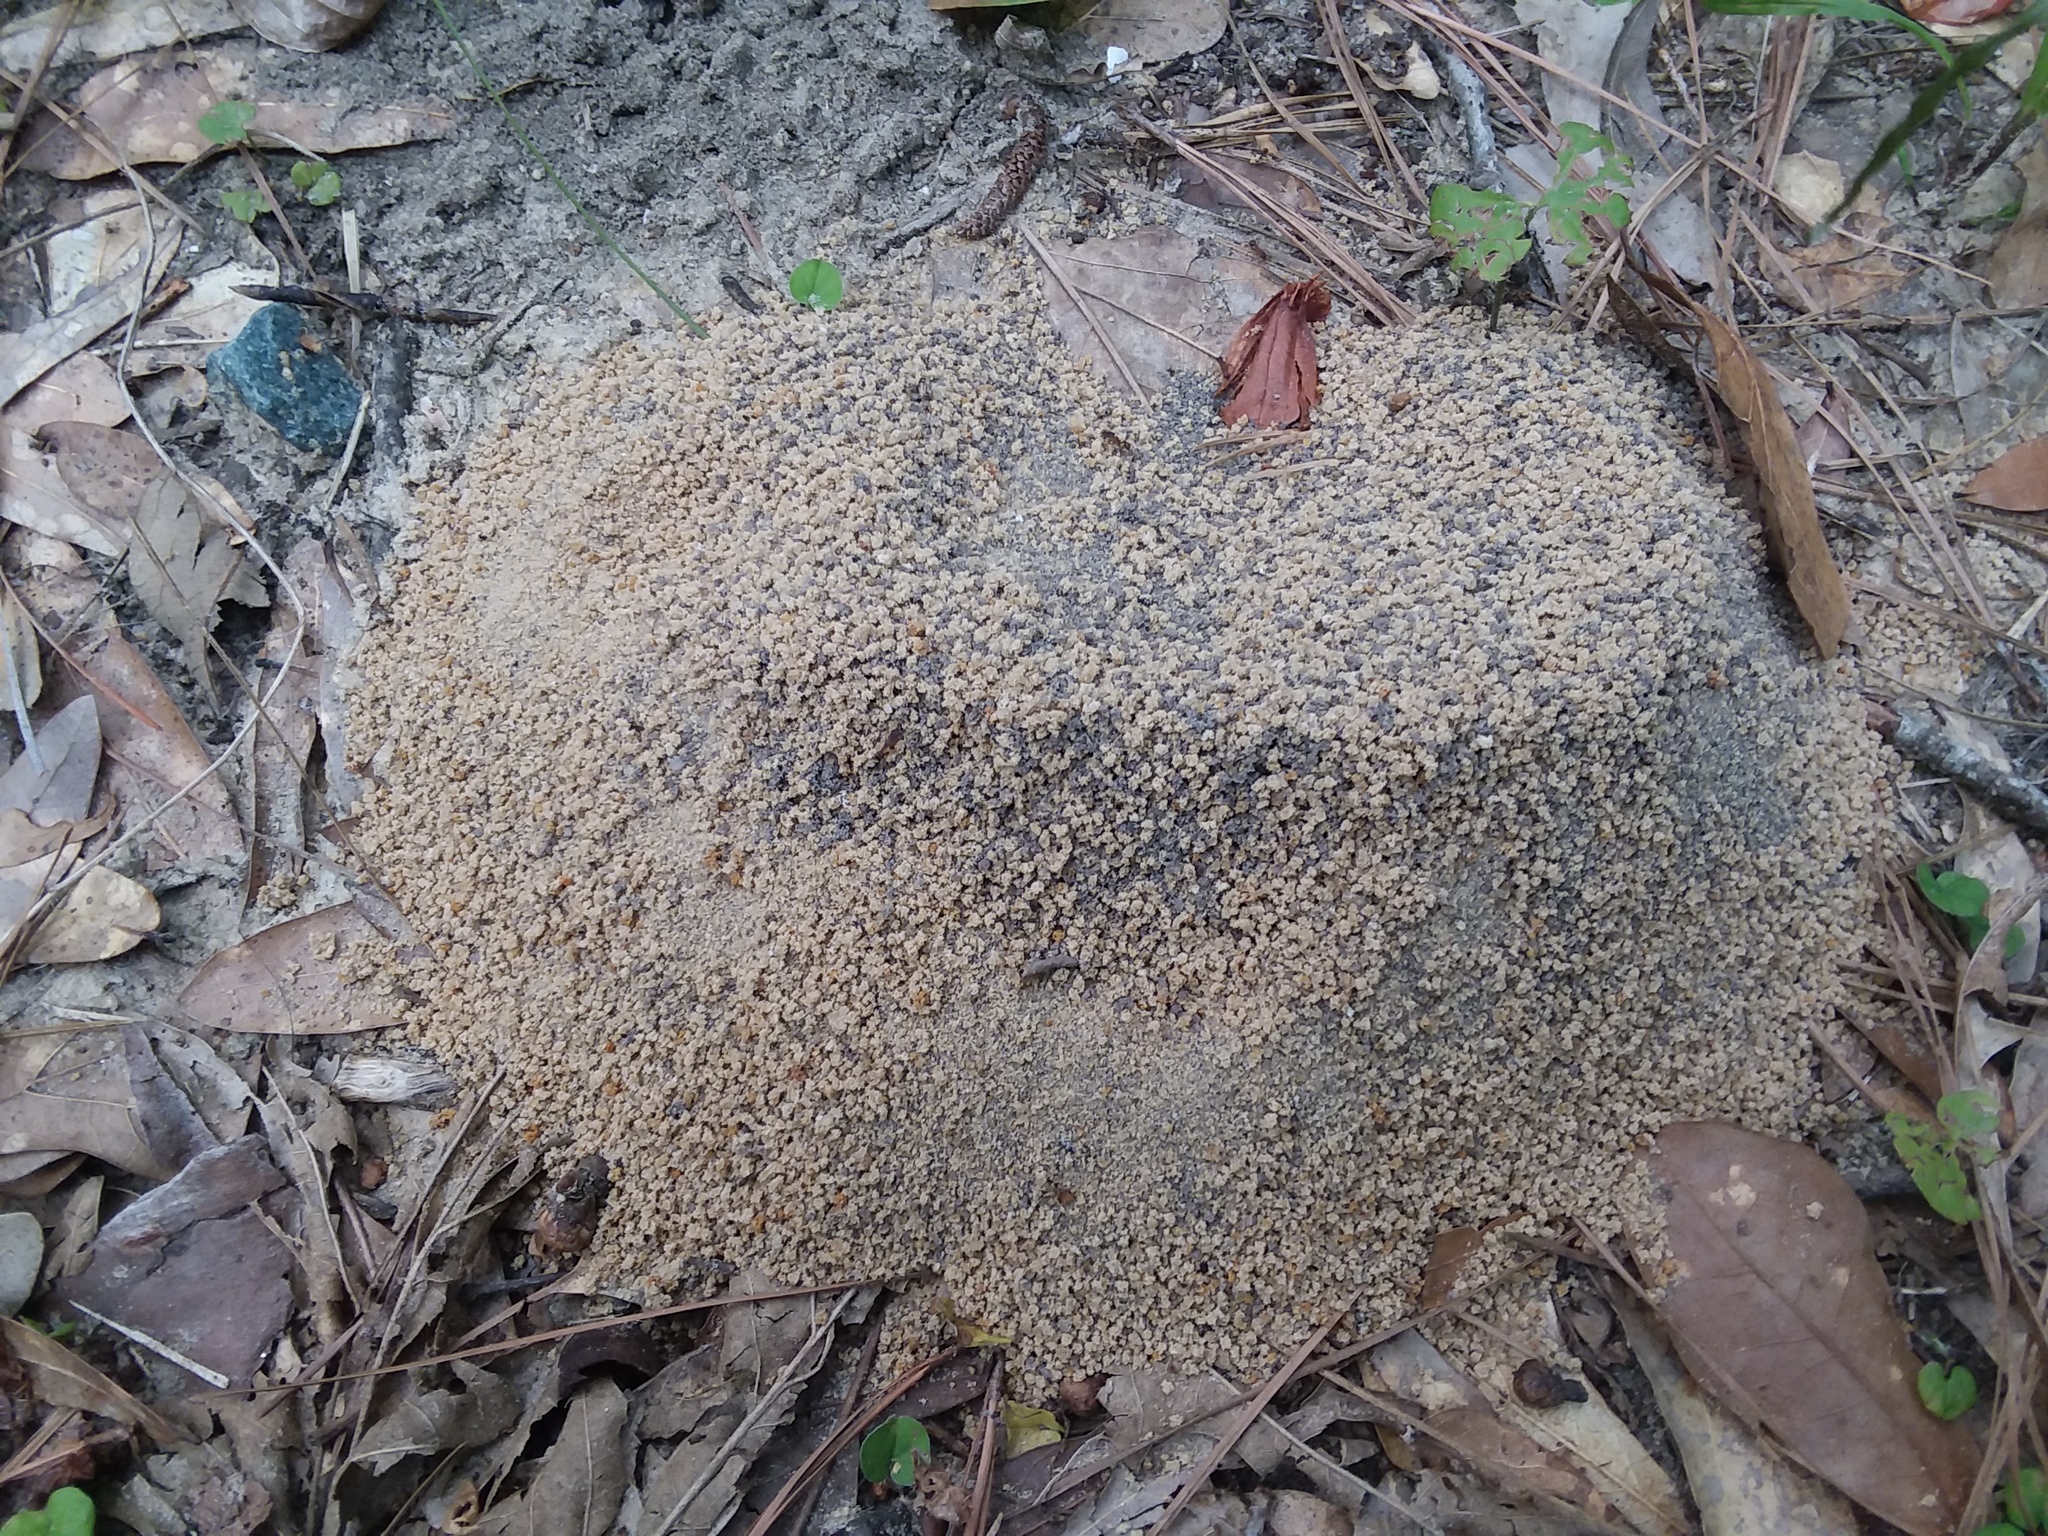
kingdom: Animalia
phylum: Arthropoda
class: Insecta
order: Hymenoptera
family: Formicidae
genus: Trachymyrmex
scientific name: Trachymyrmex septentrionalis
